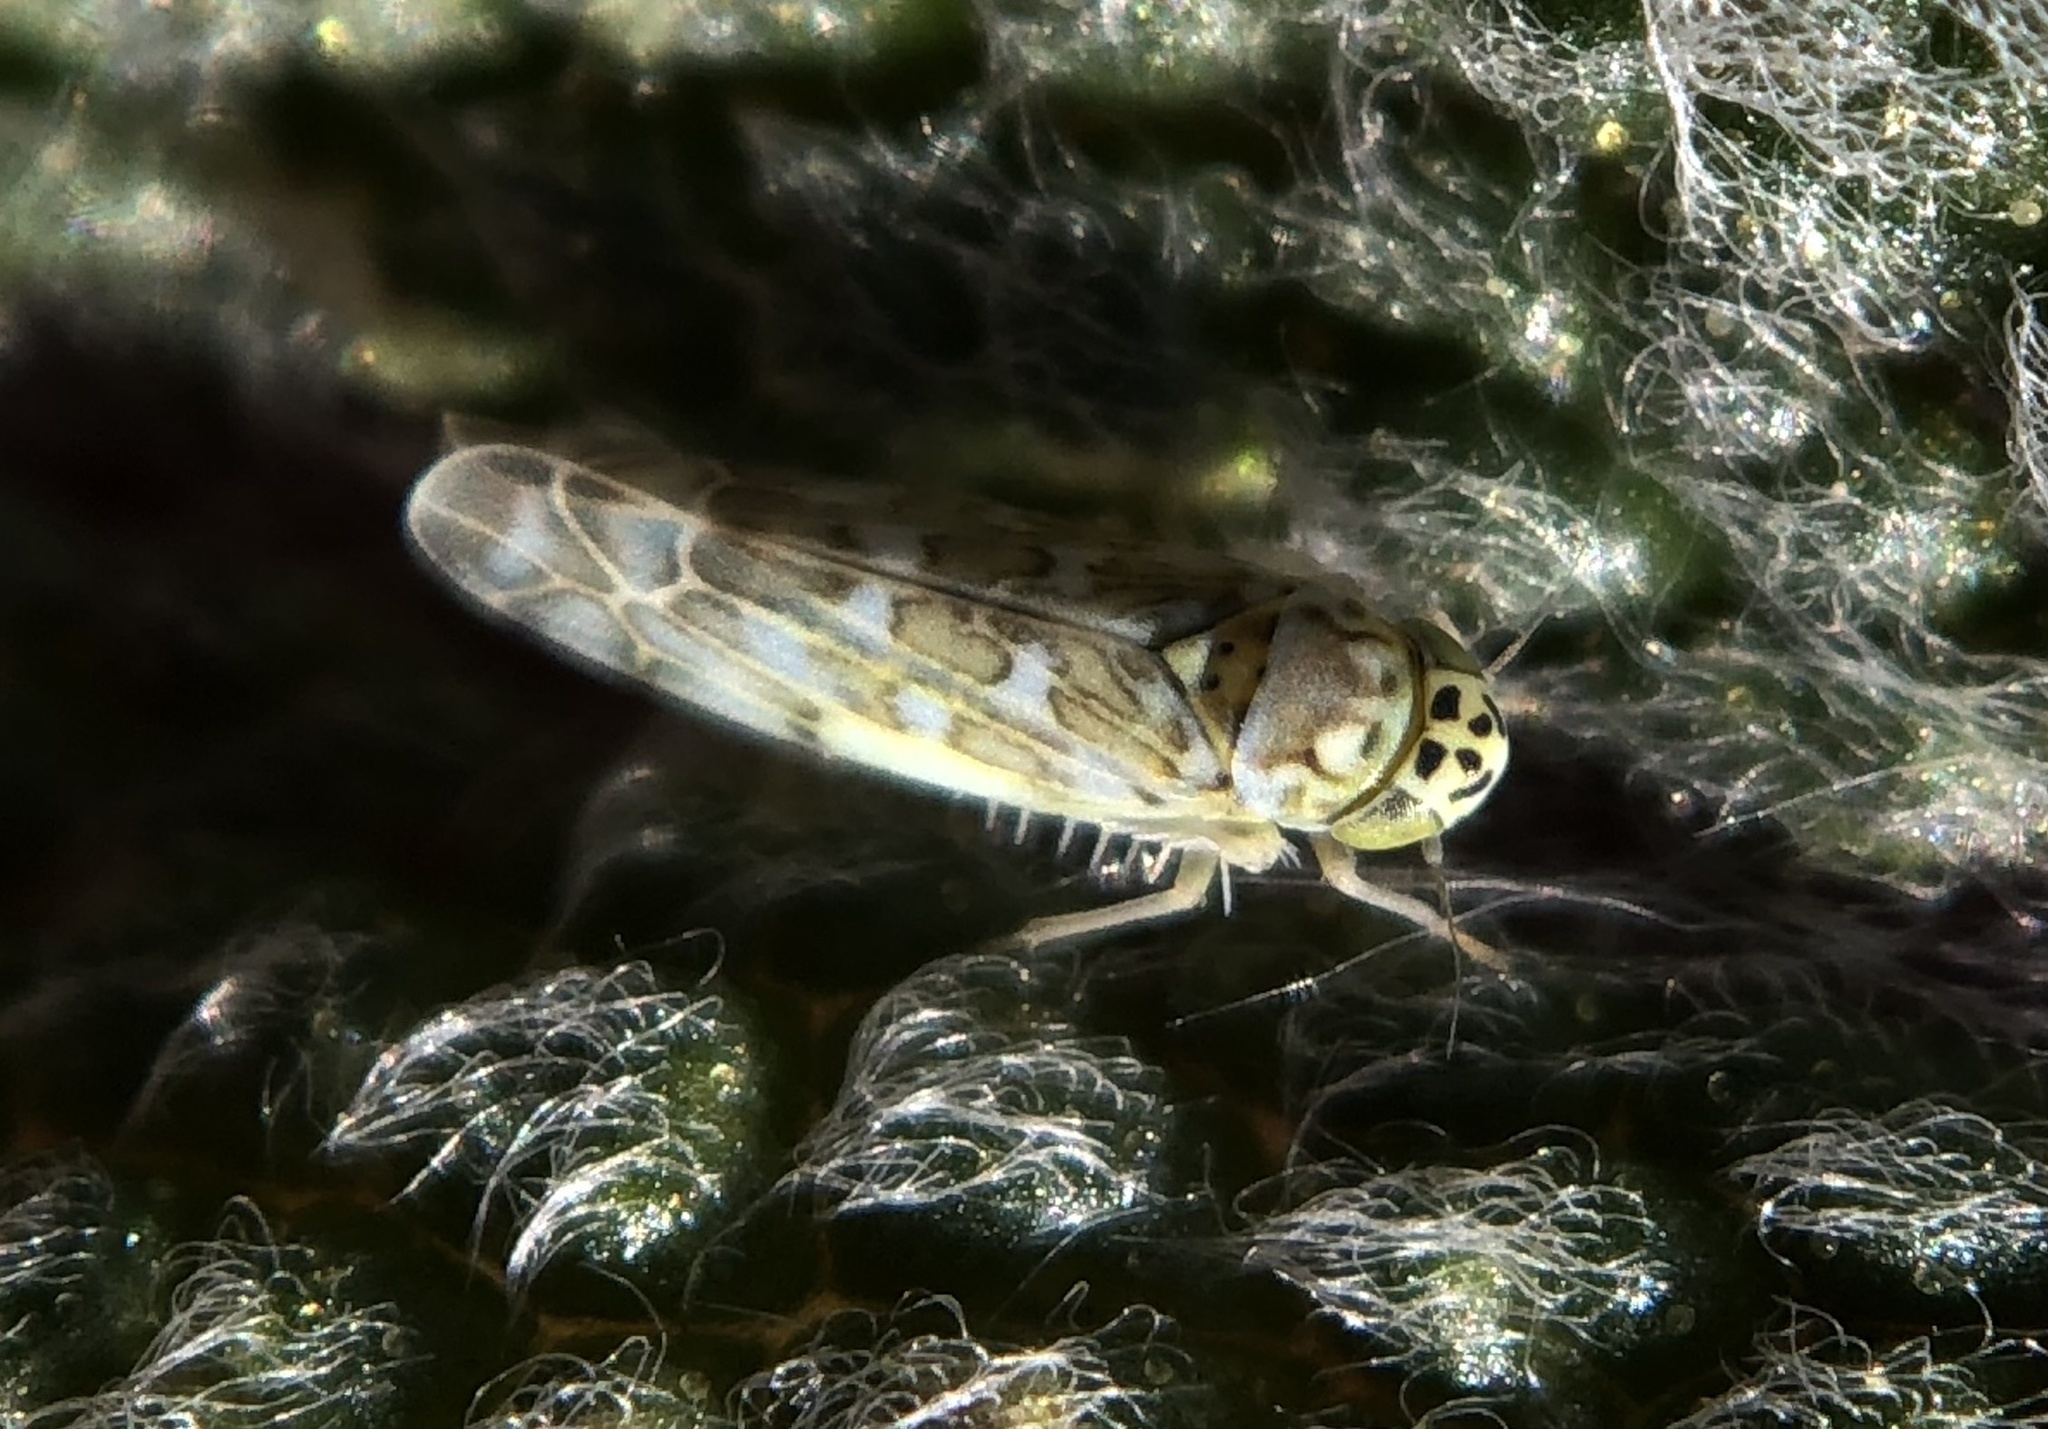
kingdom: Animalia
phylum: Arthropoda
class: Insecta
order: Hemiptera
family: Cicadellidae
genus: Eupteryx
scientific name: Eupteryx decemnotata
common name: Ligurian leafhopper
